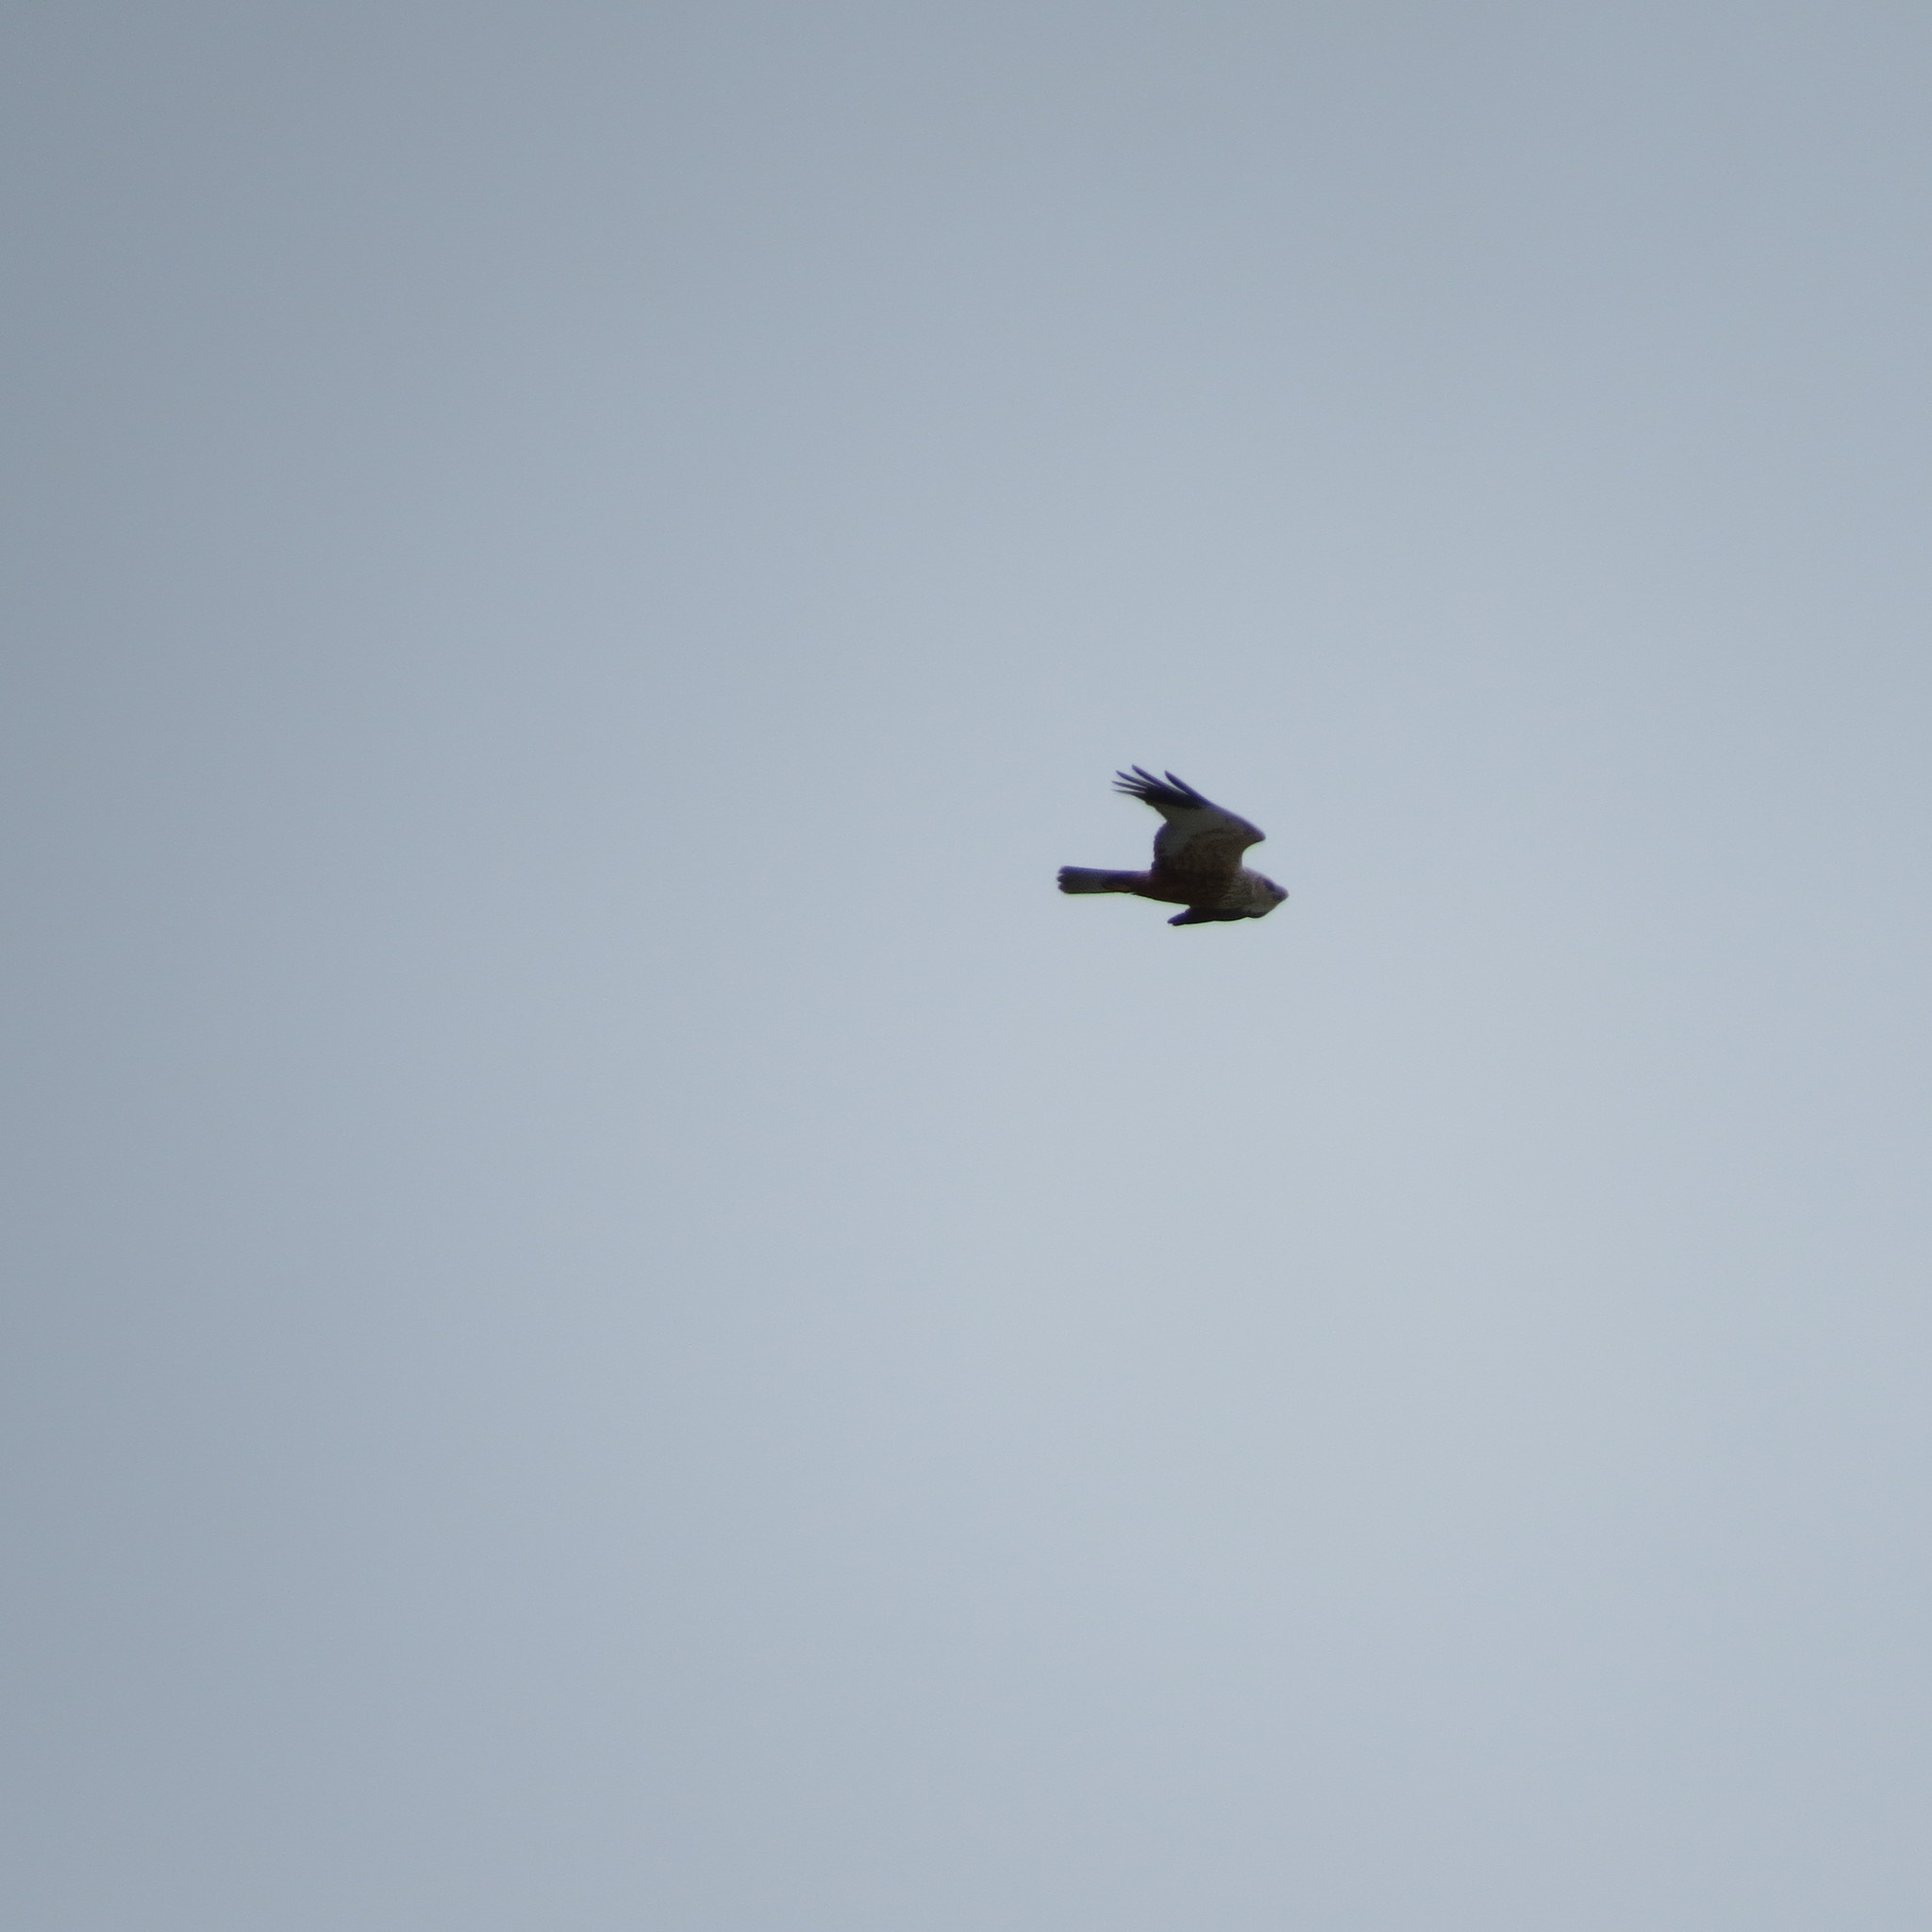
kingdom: Animalia
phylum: Chordata
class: Aves
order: Accipitriformes
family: Accipitridae
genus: Circus
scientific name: Circus aeruginosus
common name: Western marsh harrier
